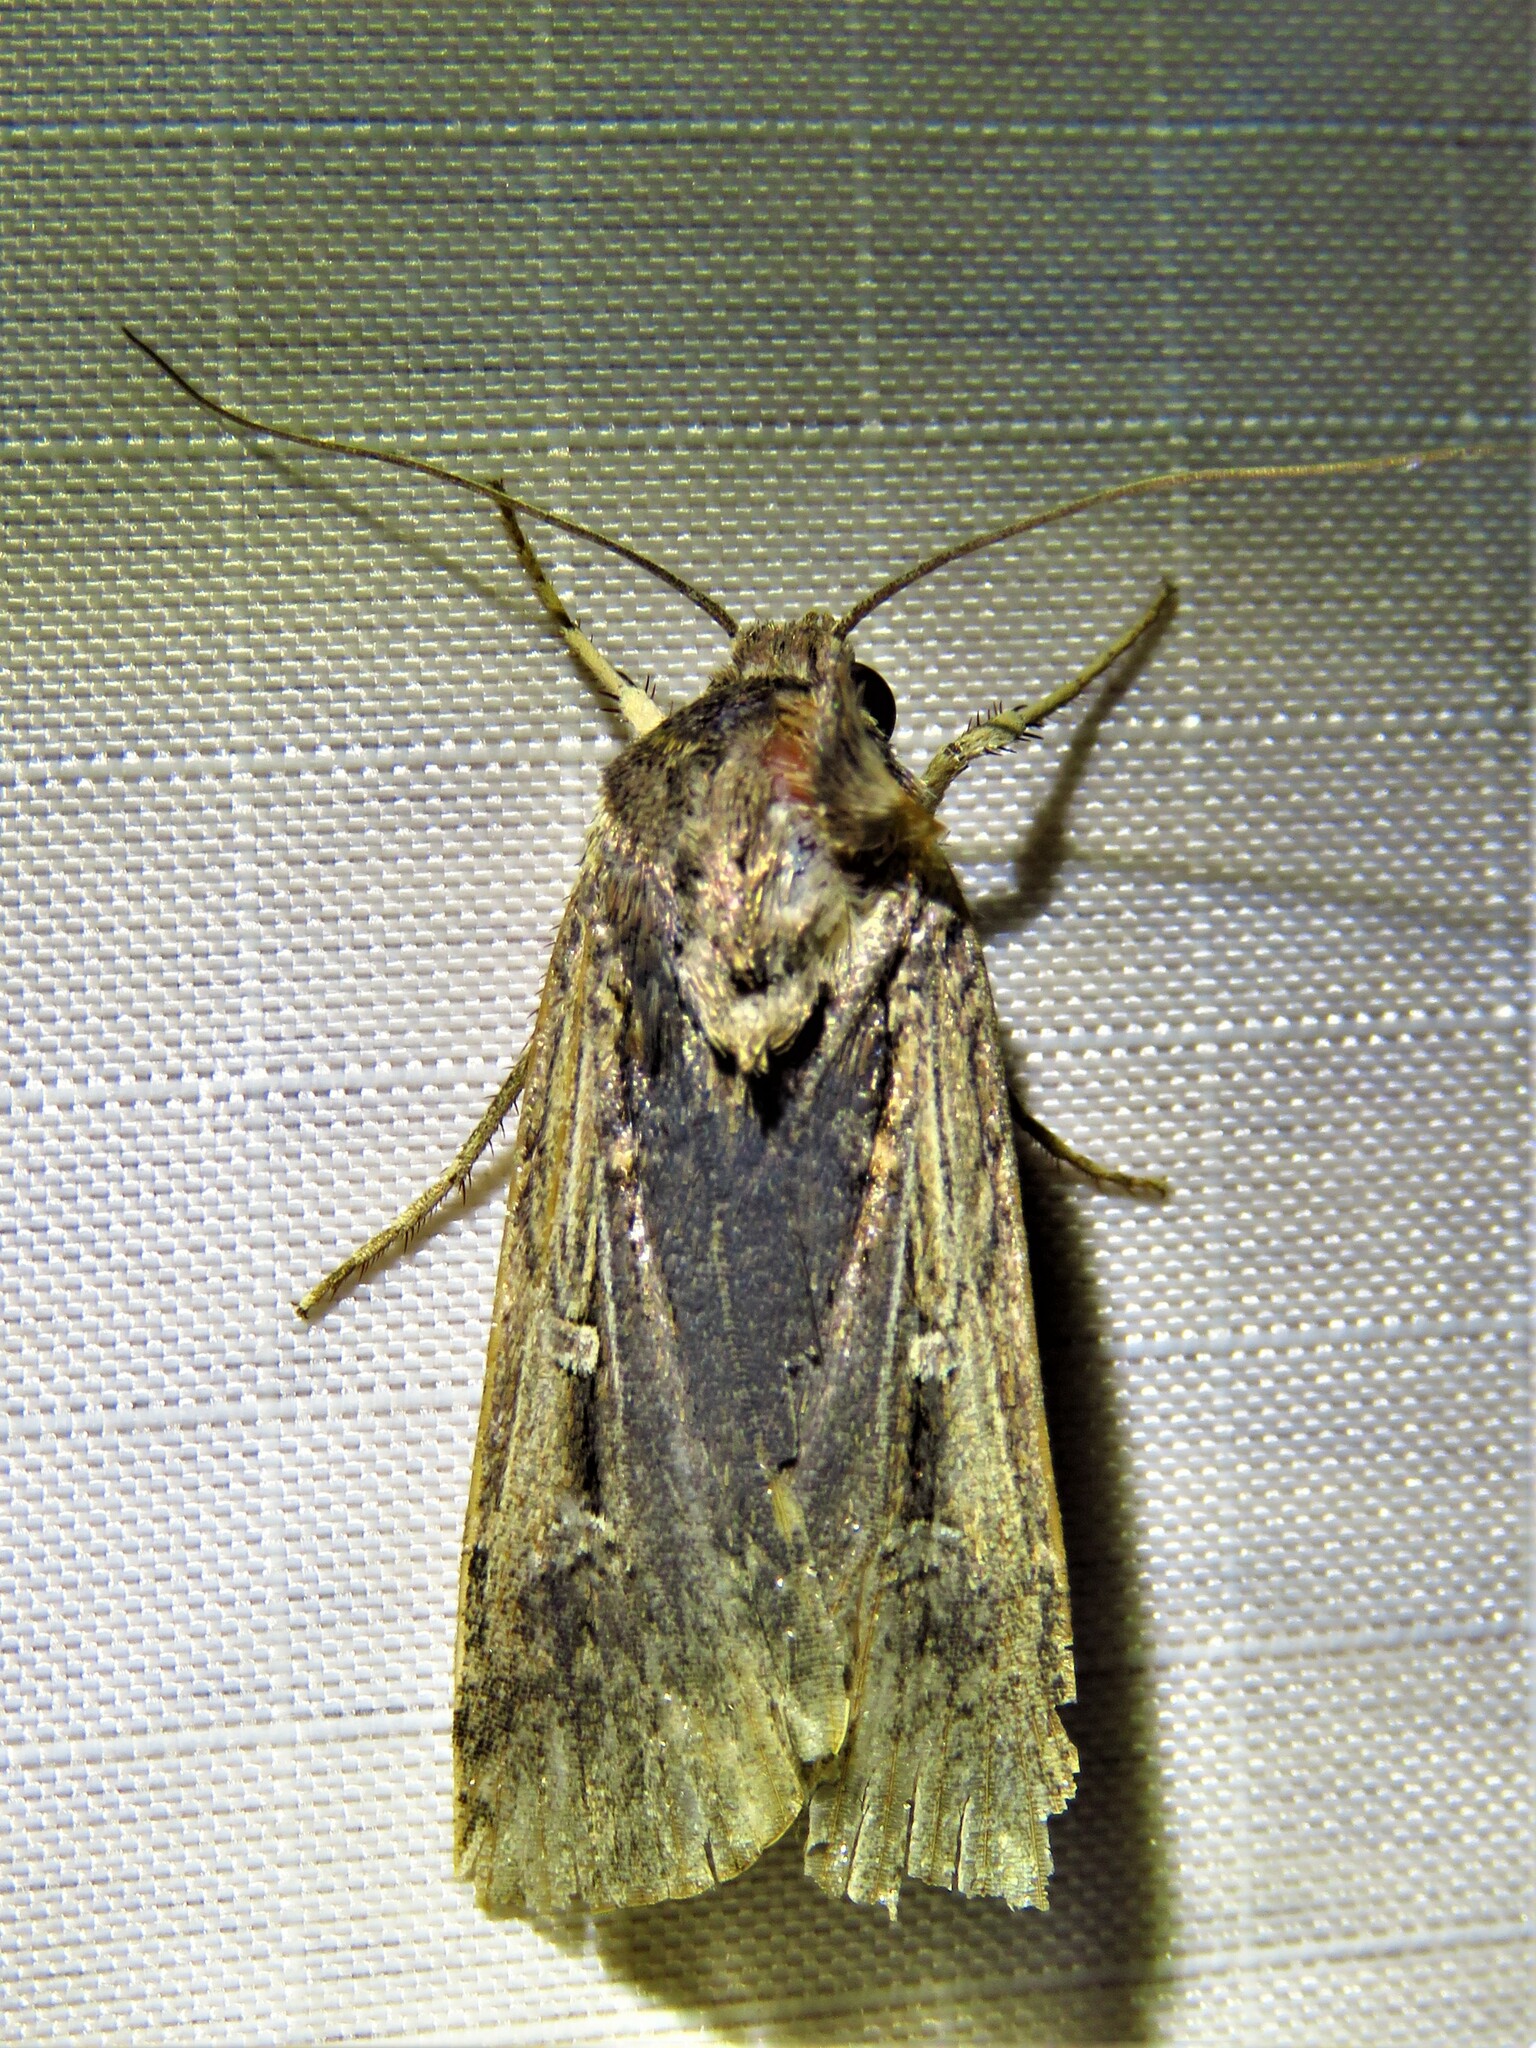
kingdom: Animalia
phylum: Arthropoda
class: Insecta
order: Lepidoptera
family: Noctuidae
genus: Feltia
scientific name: Feltia subterranea
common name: Granulate cutworm
